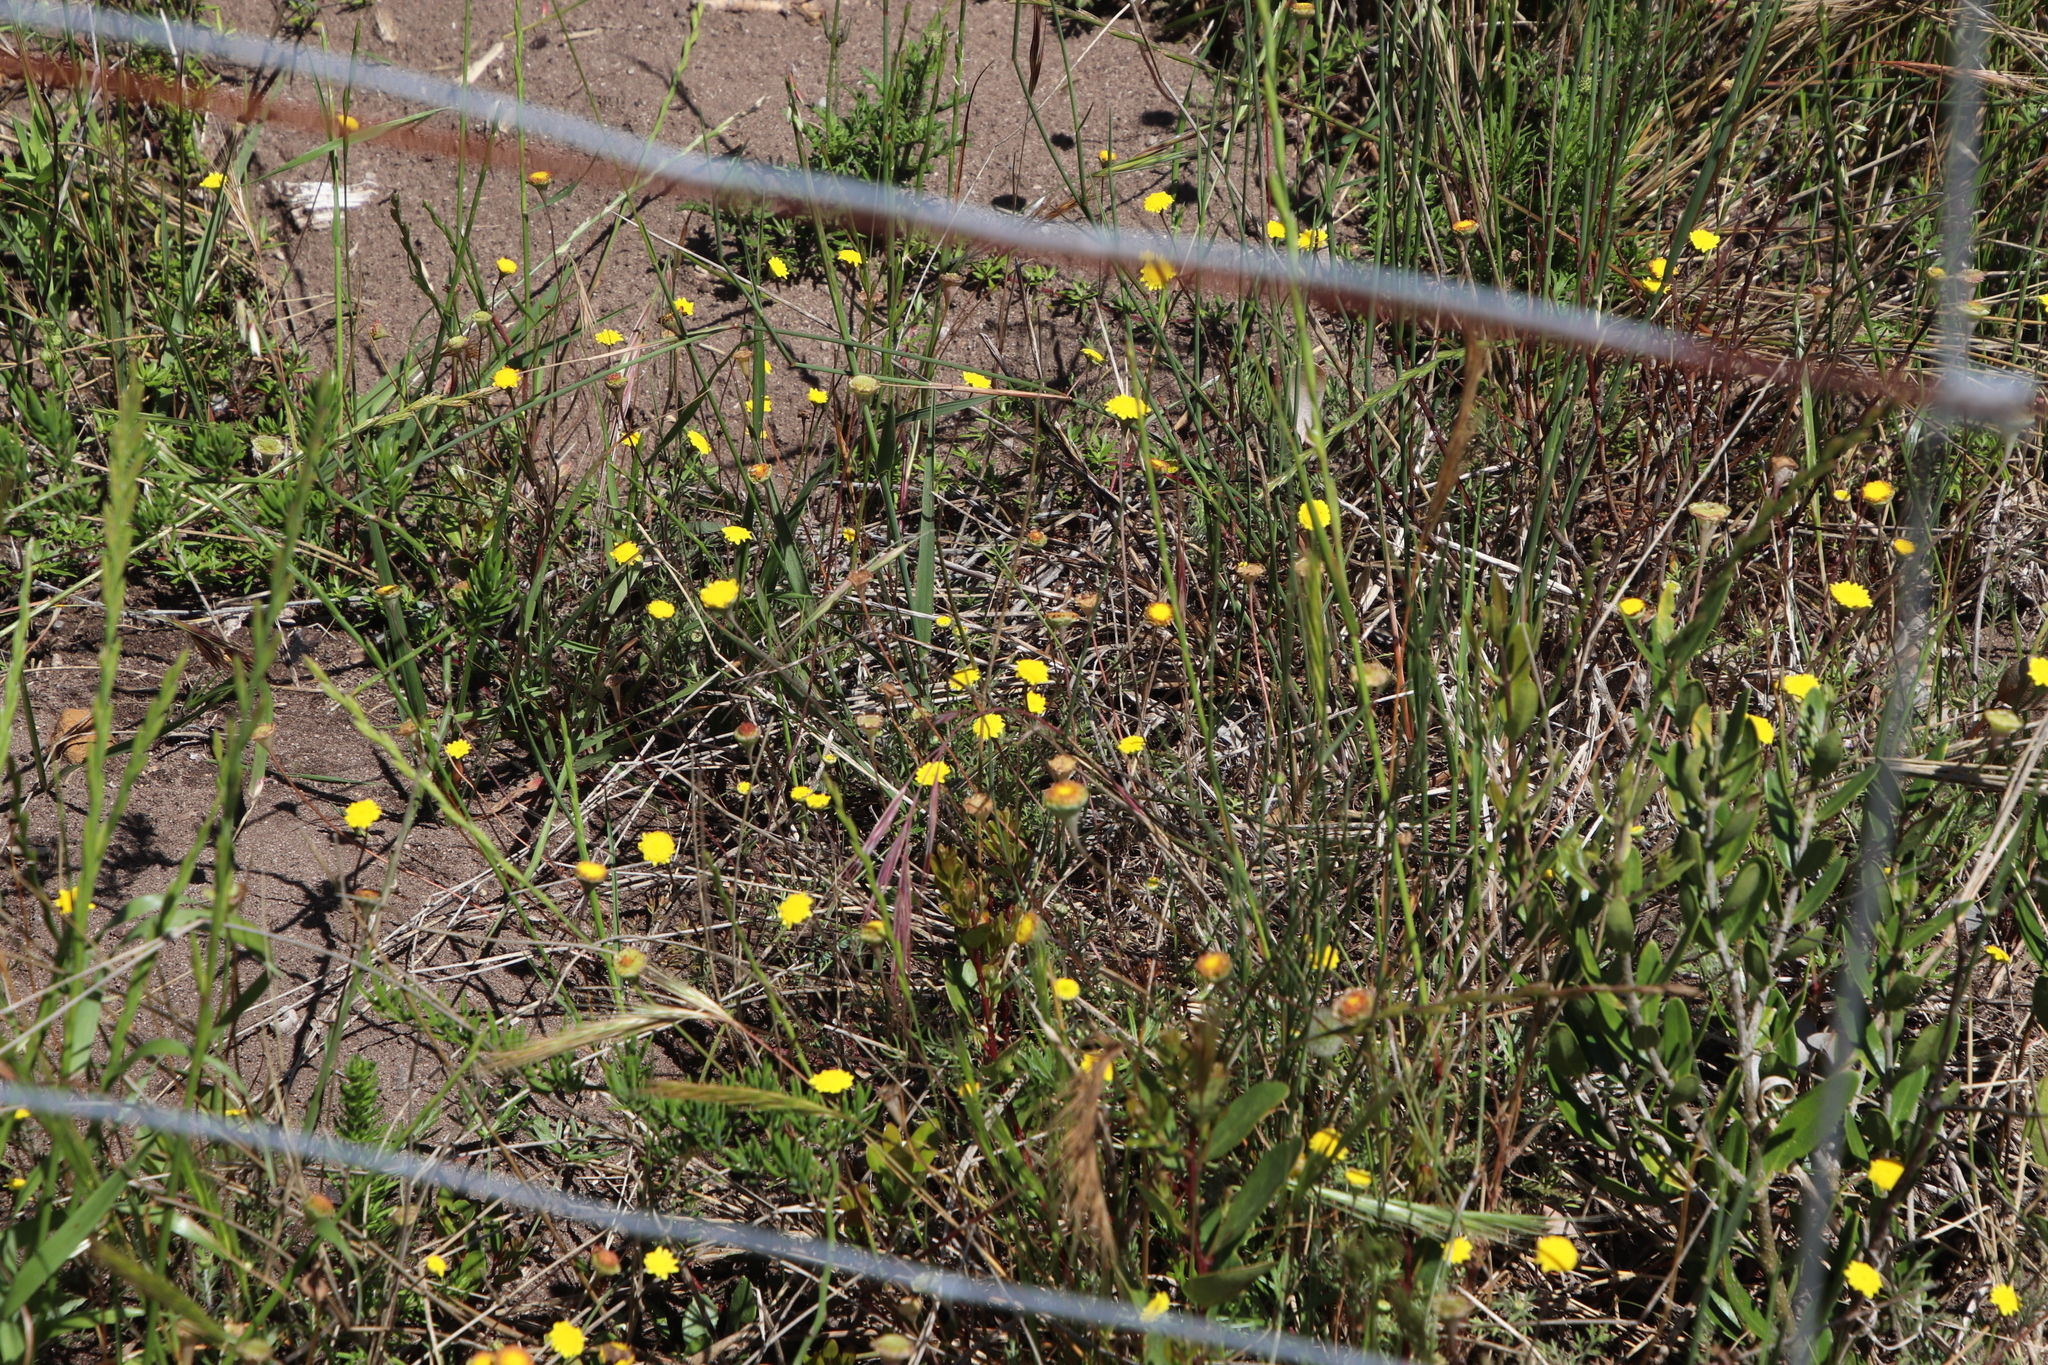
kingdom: Plantae
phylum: Tracheophyta
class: Magnoliopsida
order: Asterales
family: Asteraceae
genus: Cotula
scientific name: Cotula pruinosa
